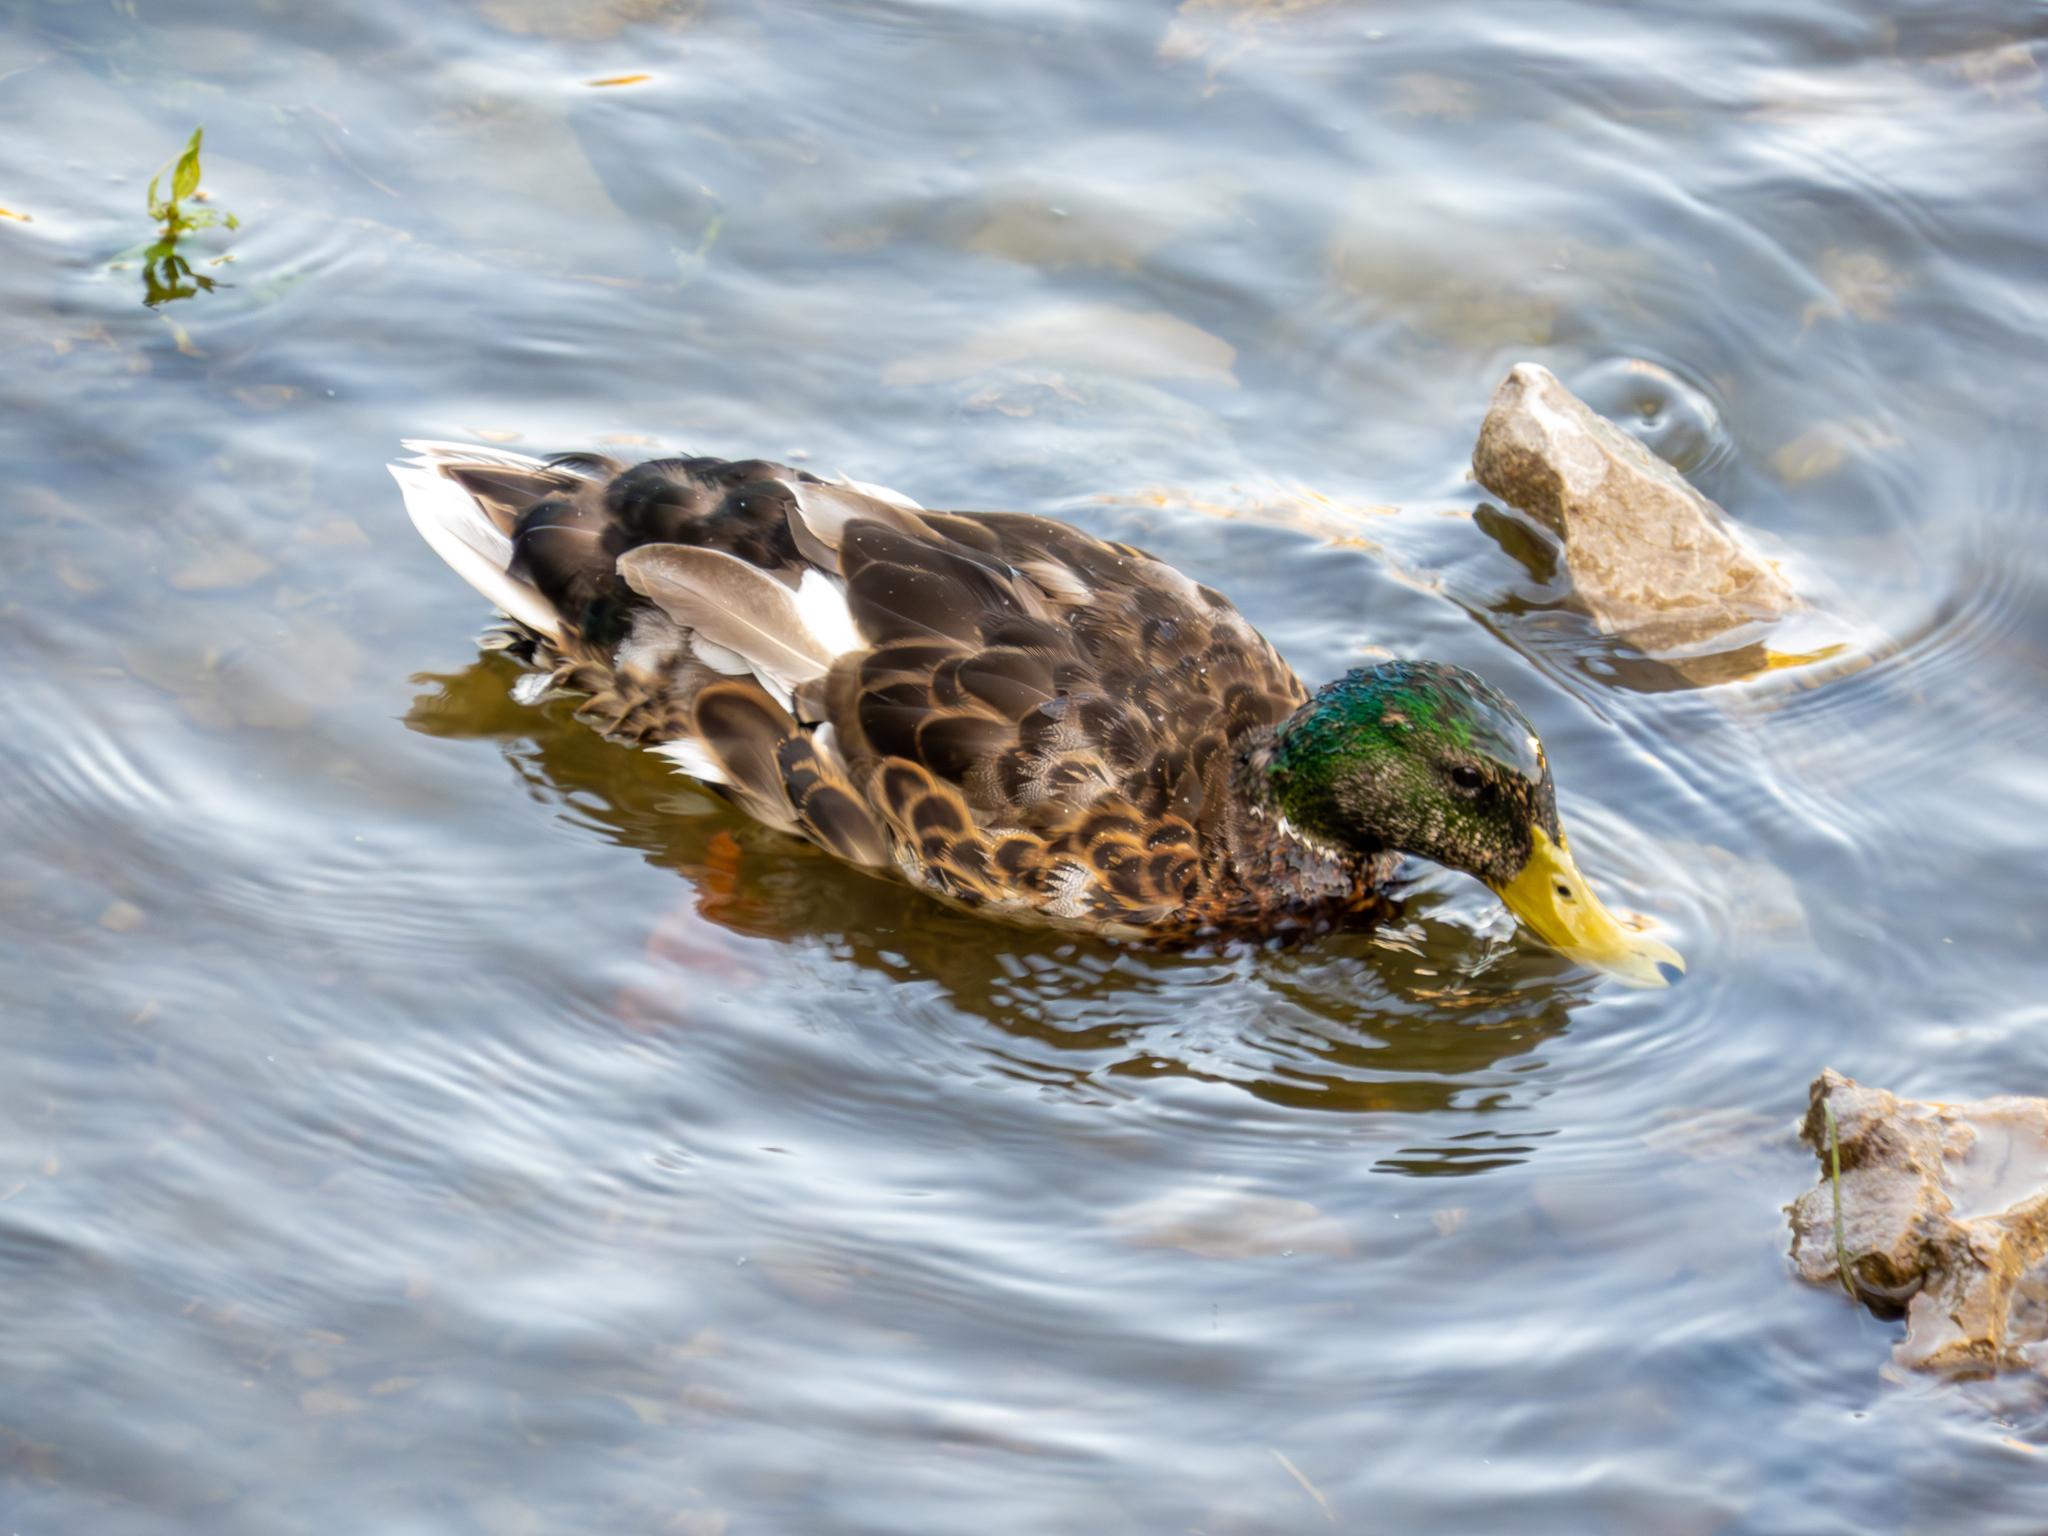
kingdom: Animalia
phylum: Chordata
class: Aves
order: Anseriformes
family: Anatidae
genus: Anas
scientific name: Anas platyrhynchos
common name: Mallard
